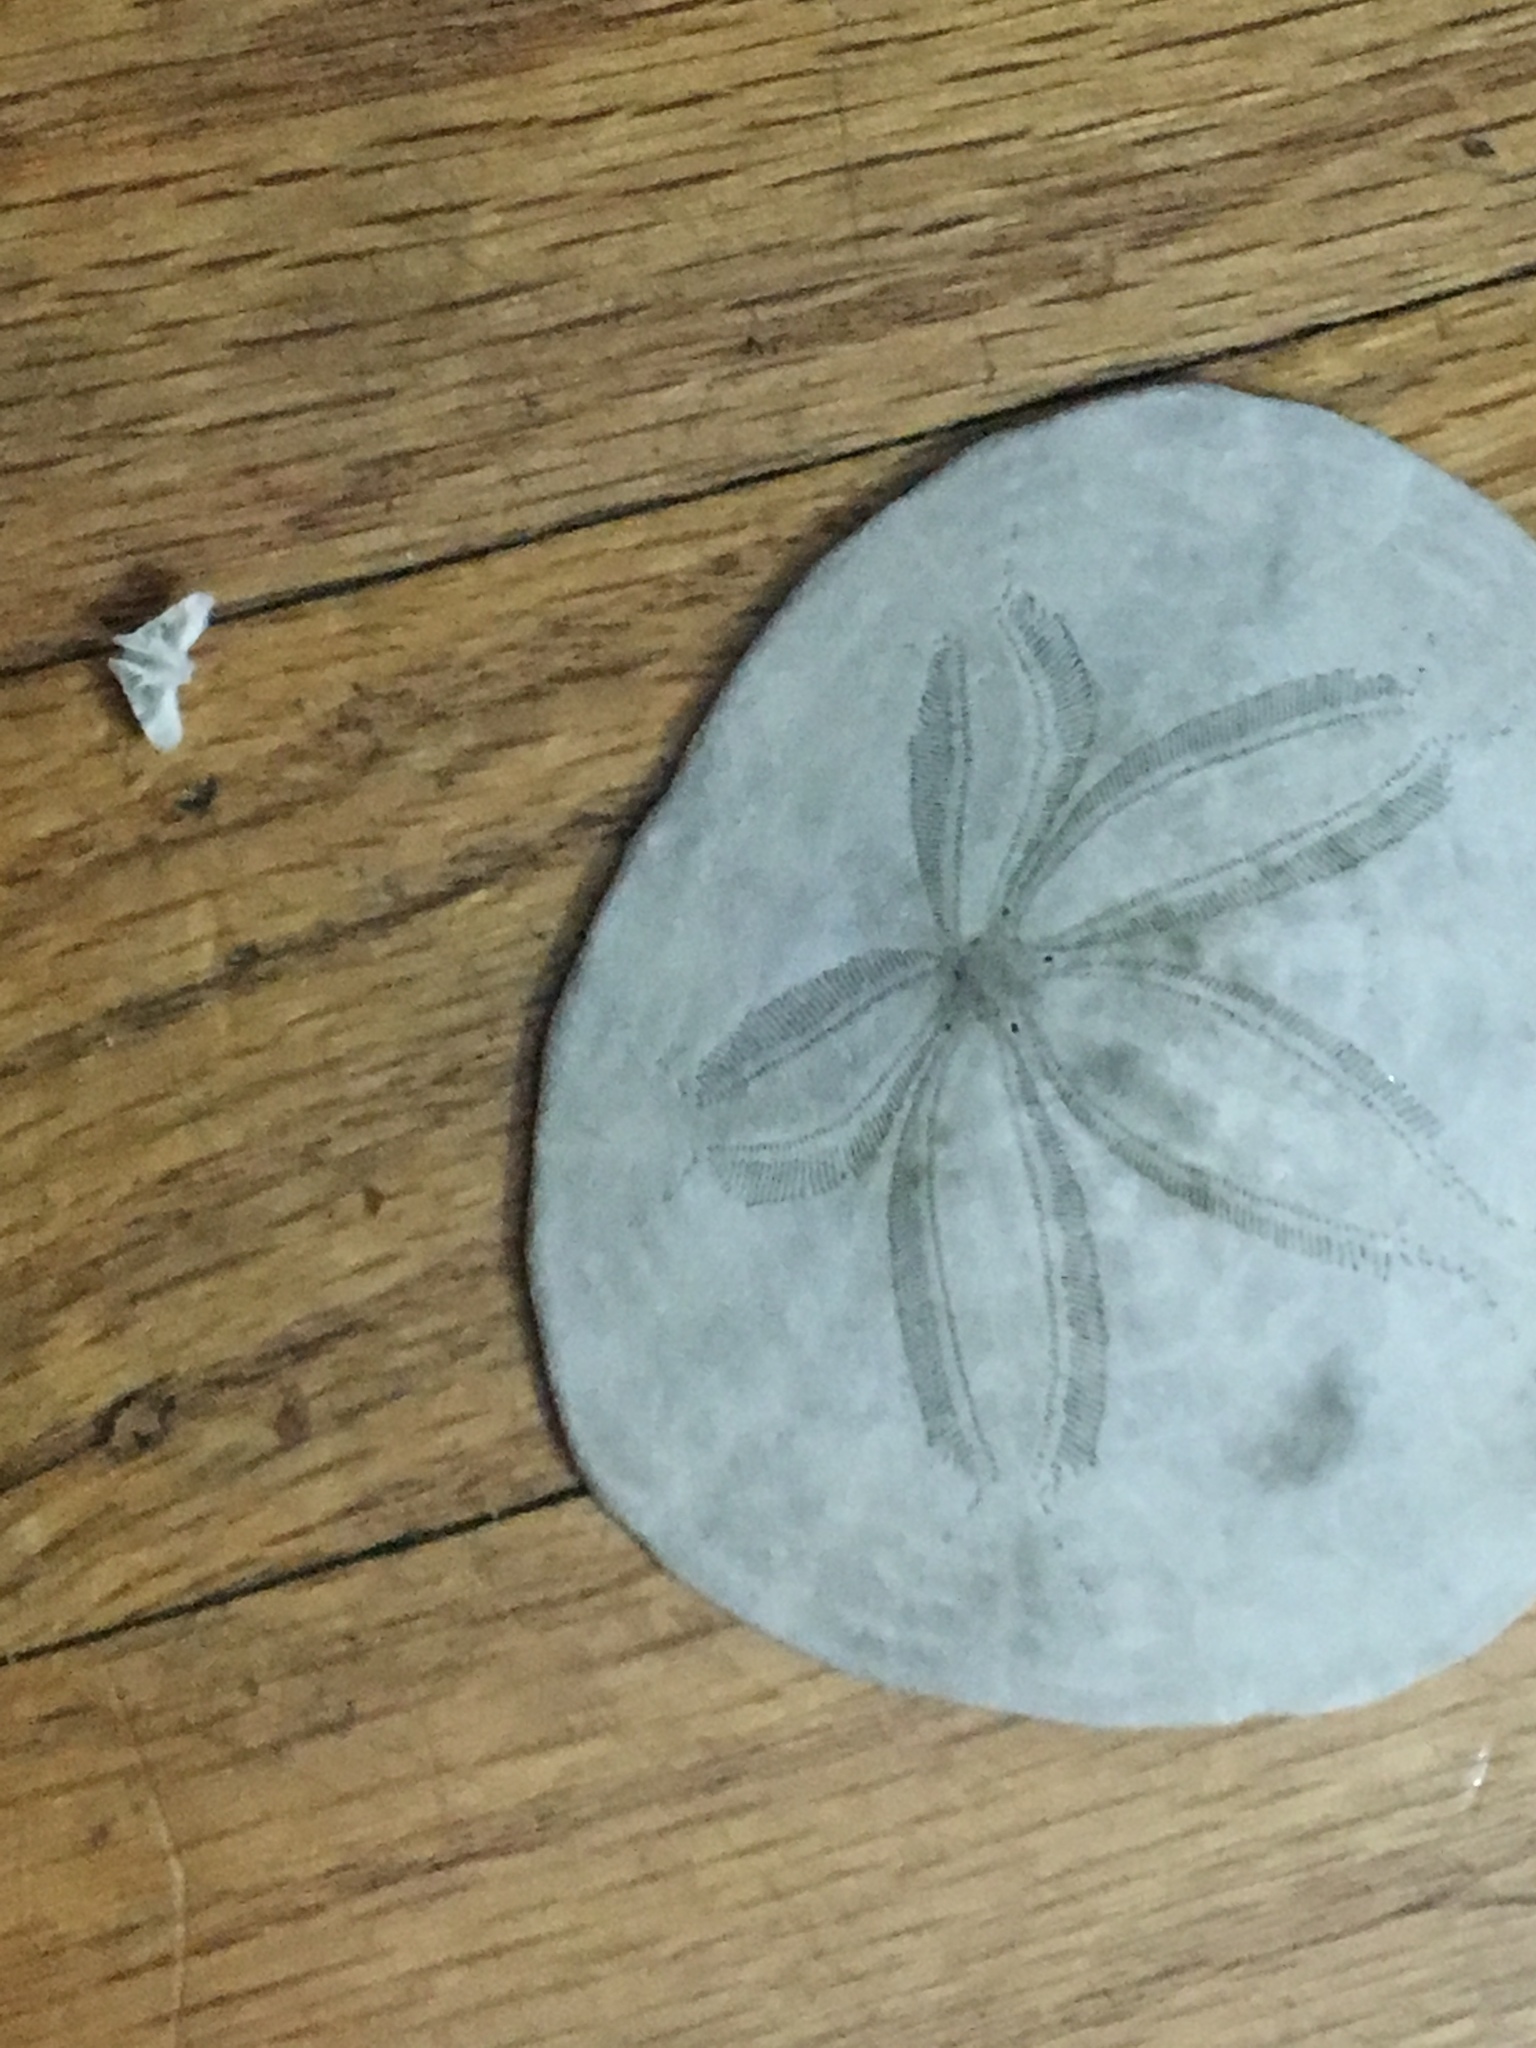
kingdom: Animalia
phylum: Echinodermata
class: Echinoidea
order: Echinolampadacea
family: Dendrasteridae
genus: Dendraster
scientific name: Dendraster excentricus
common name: Eccentric sand dollar sea urchin
